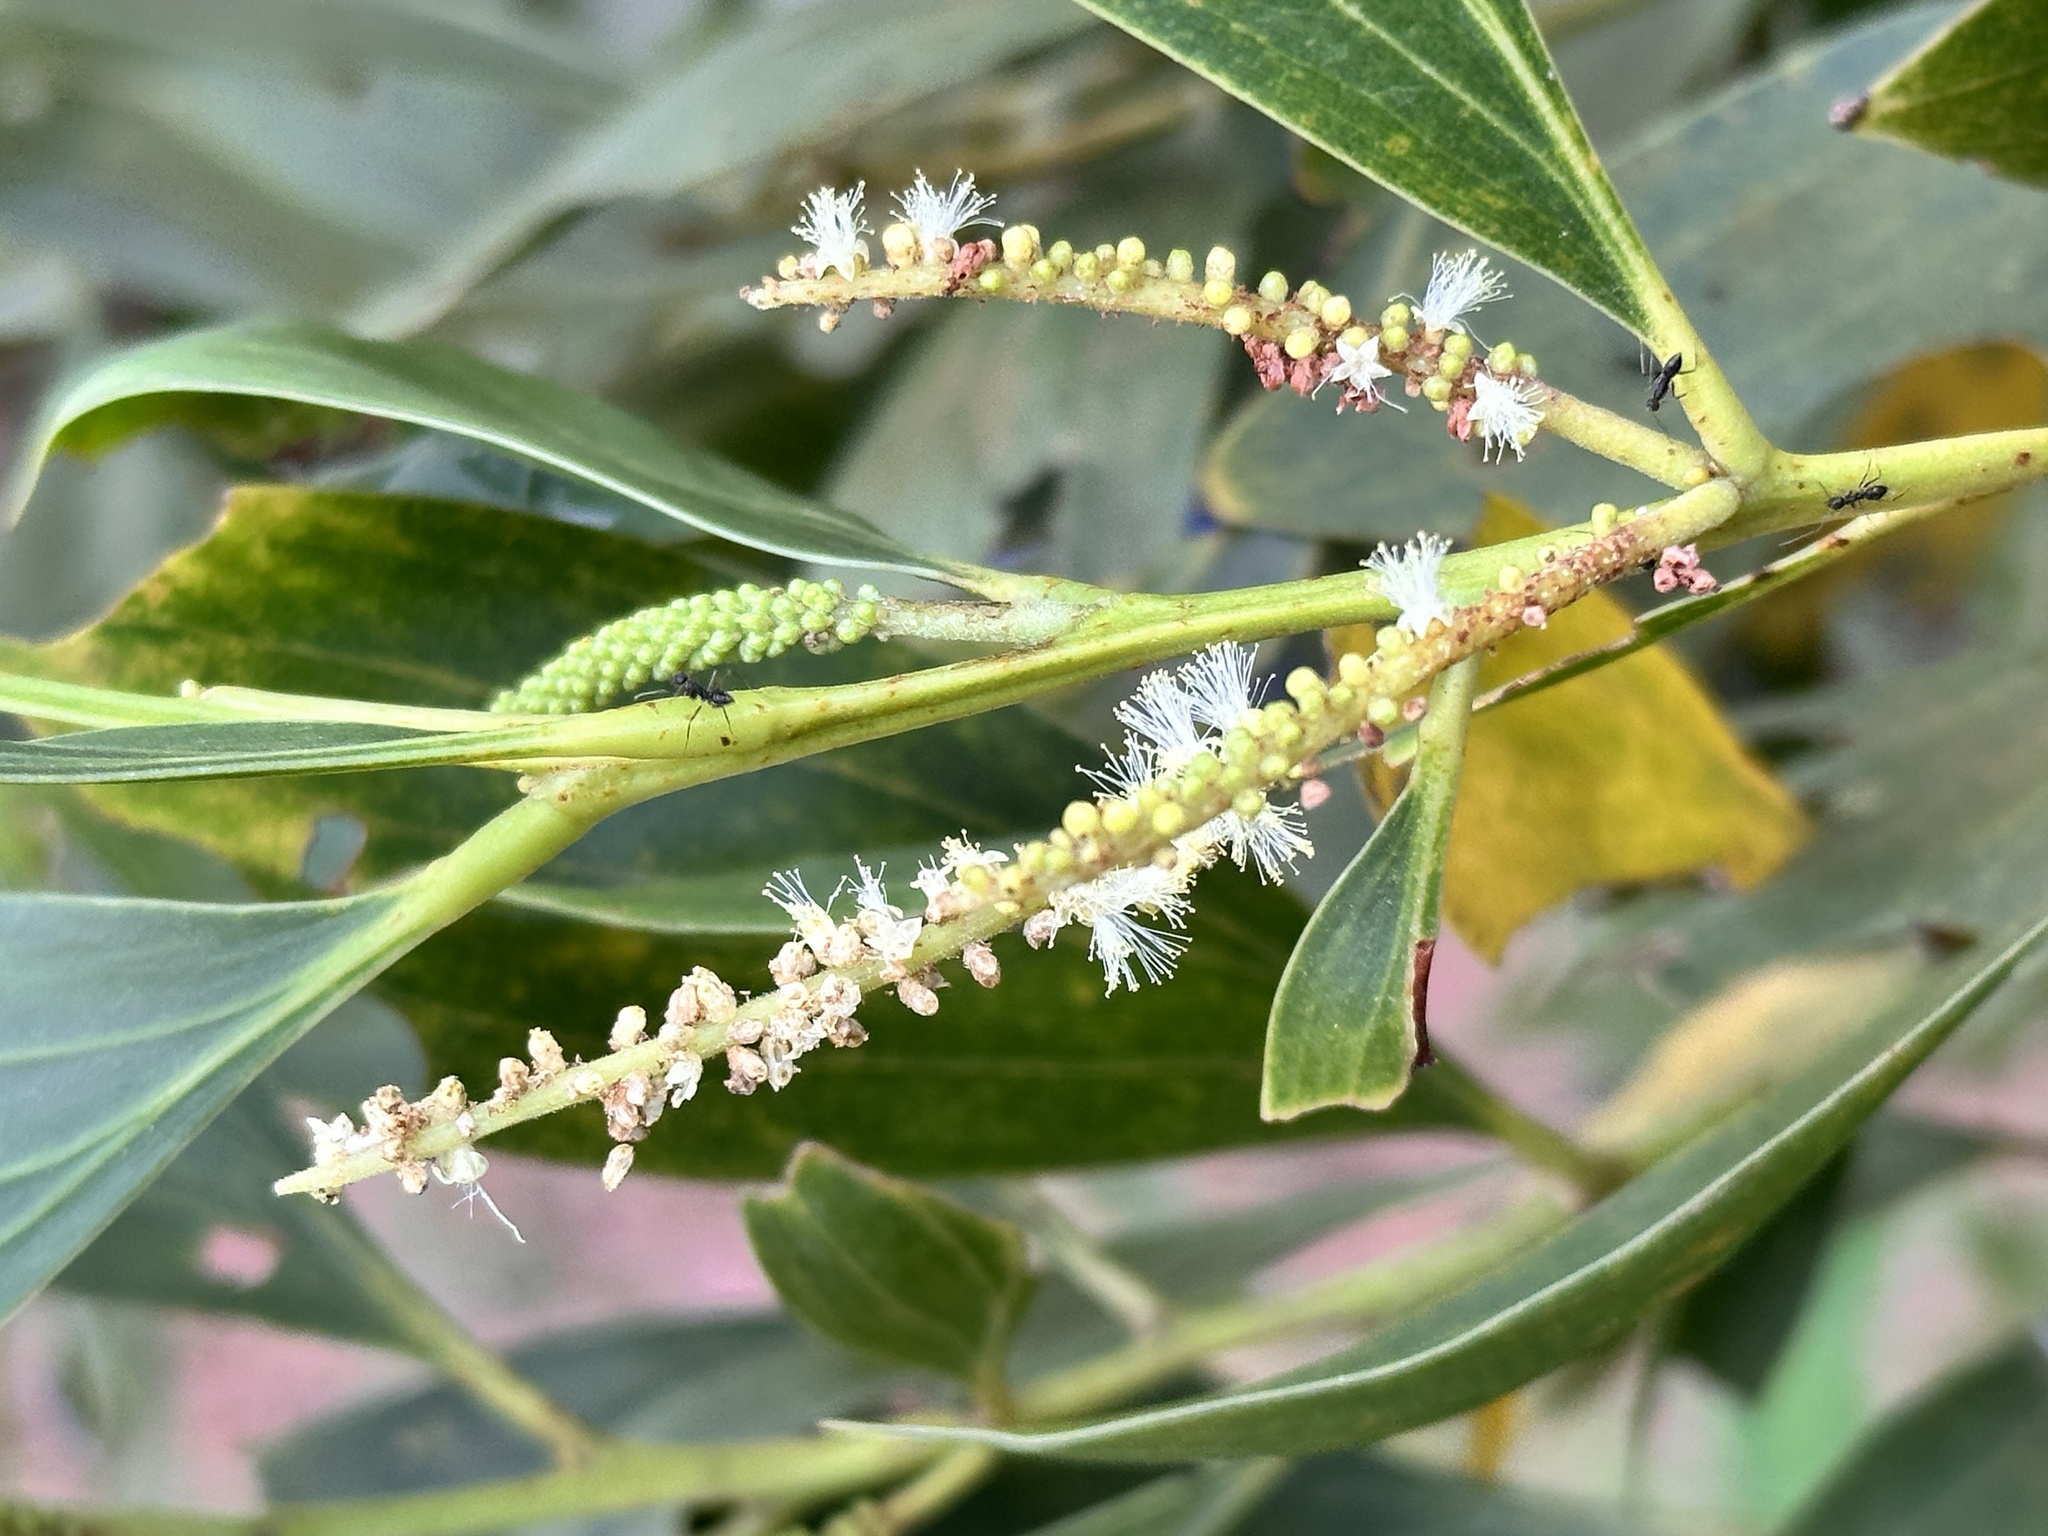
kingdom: Plantae
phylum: Tracheophyta
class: Magnoliopsida
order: Fabales
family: Fabaceae
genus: Acacia
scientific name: Acacia mangium
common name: Black wattle
